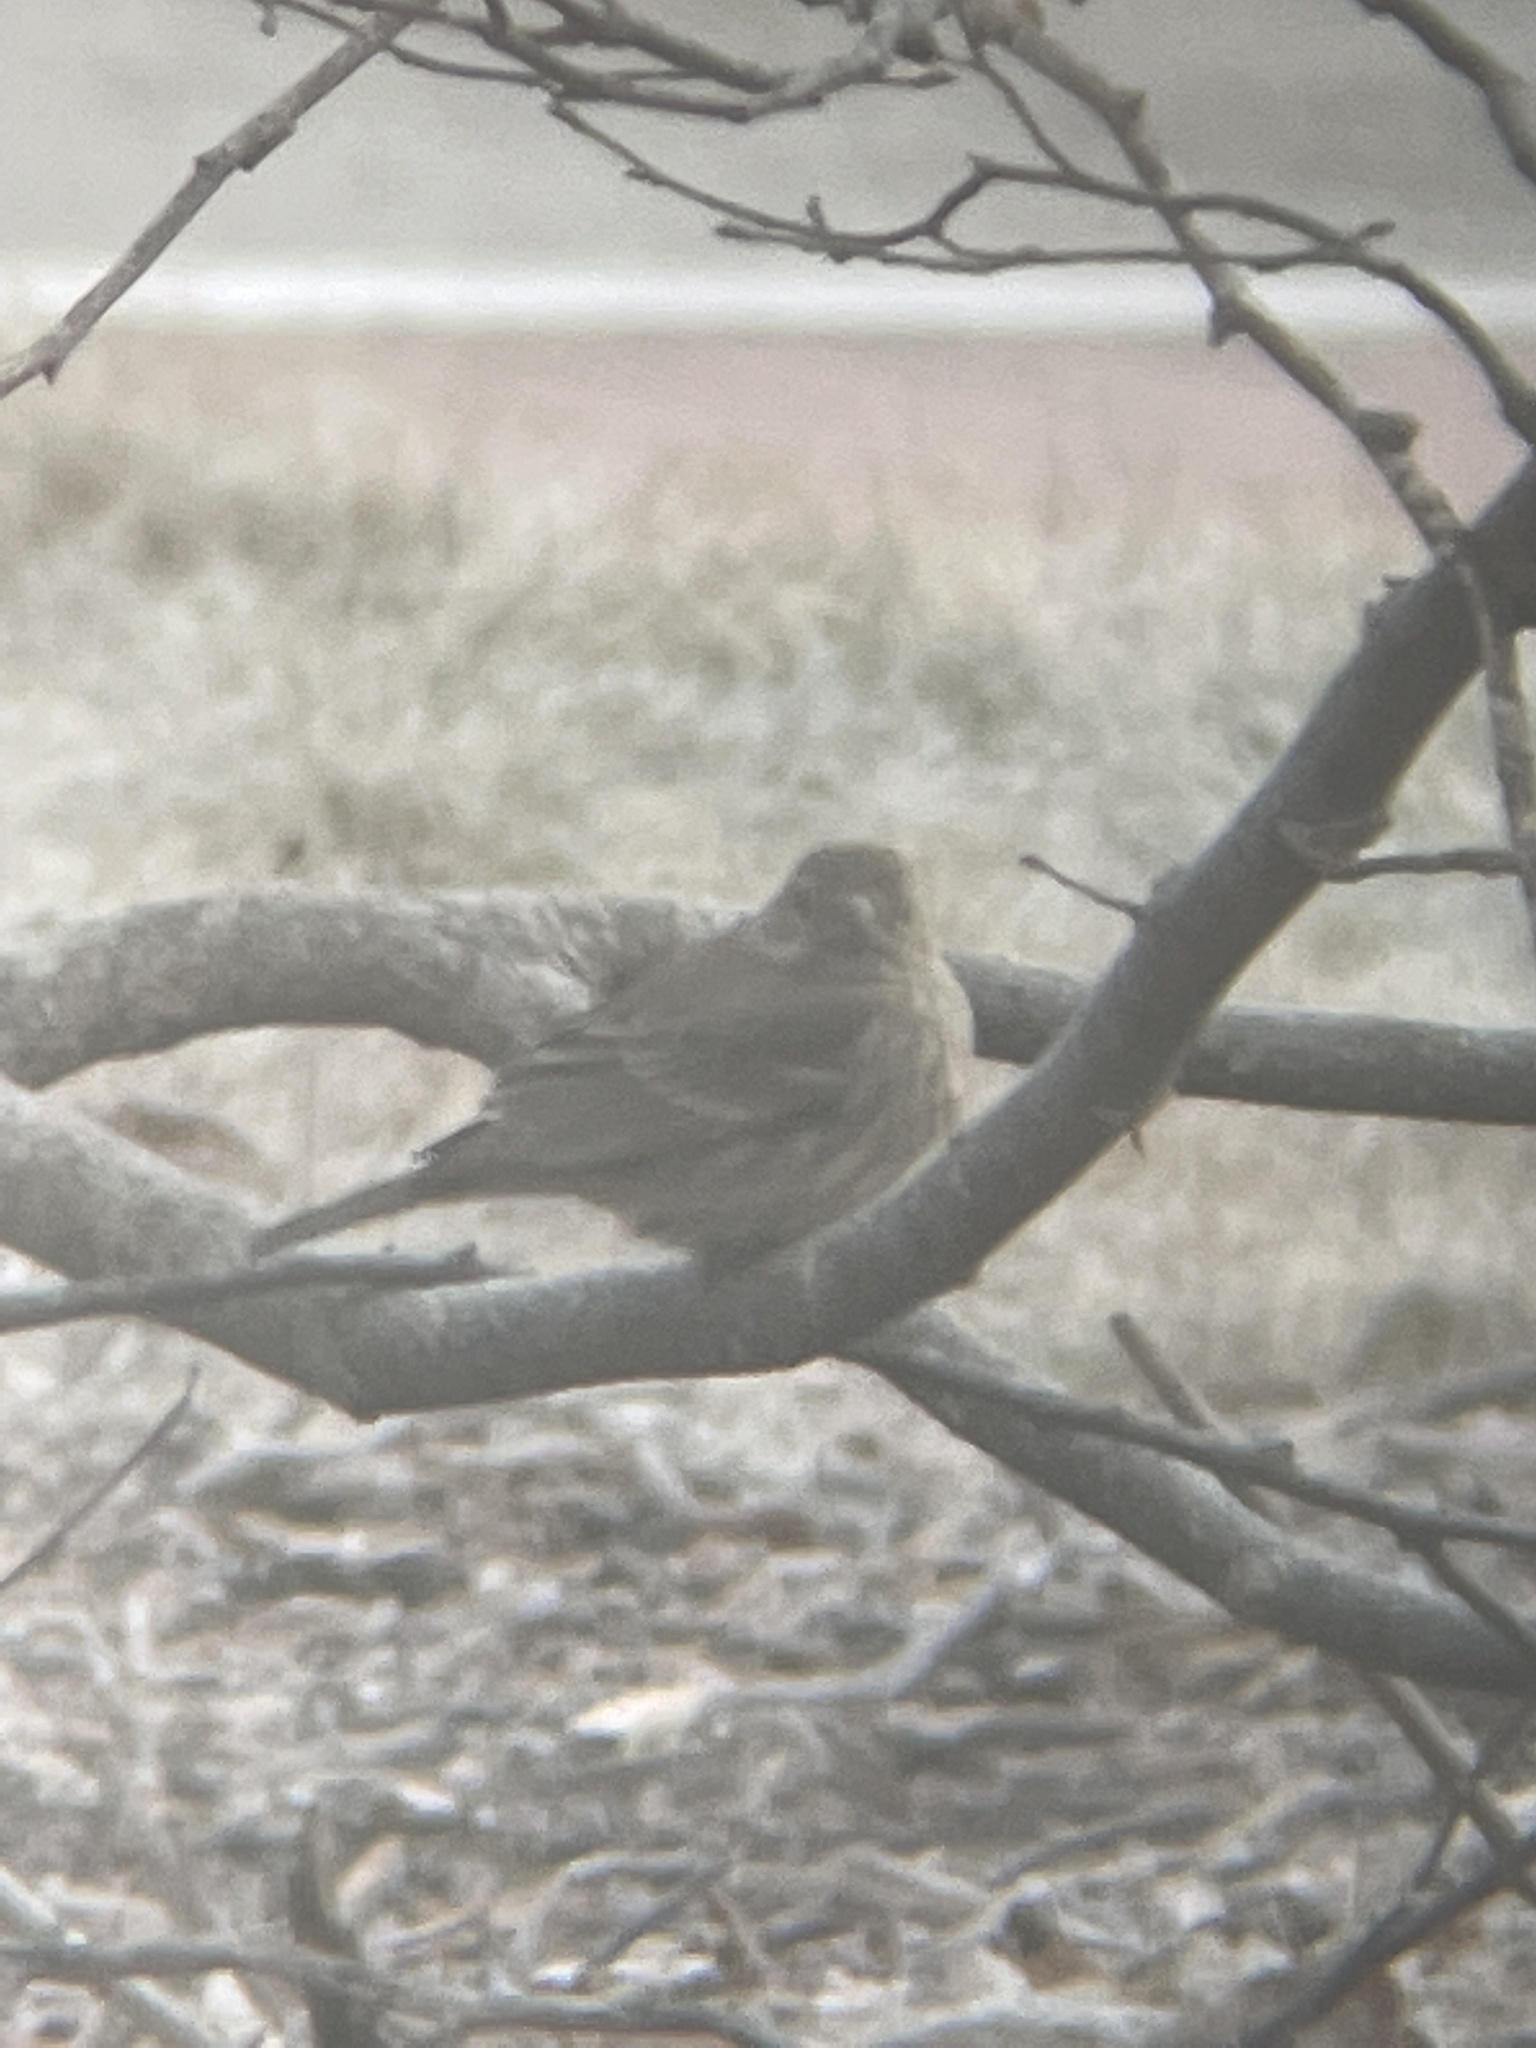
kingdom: Animalia
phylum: Chordata
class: Aves
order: Passeriformes
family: Fringillidae
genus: Haemorhous
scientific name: Haemorhous mexicanus
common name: House finch
